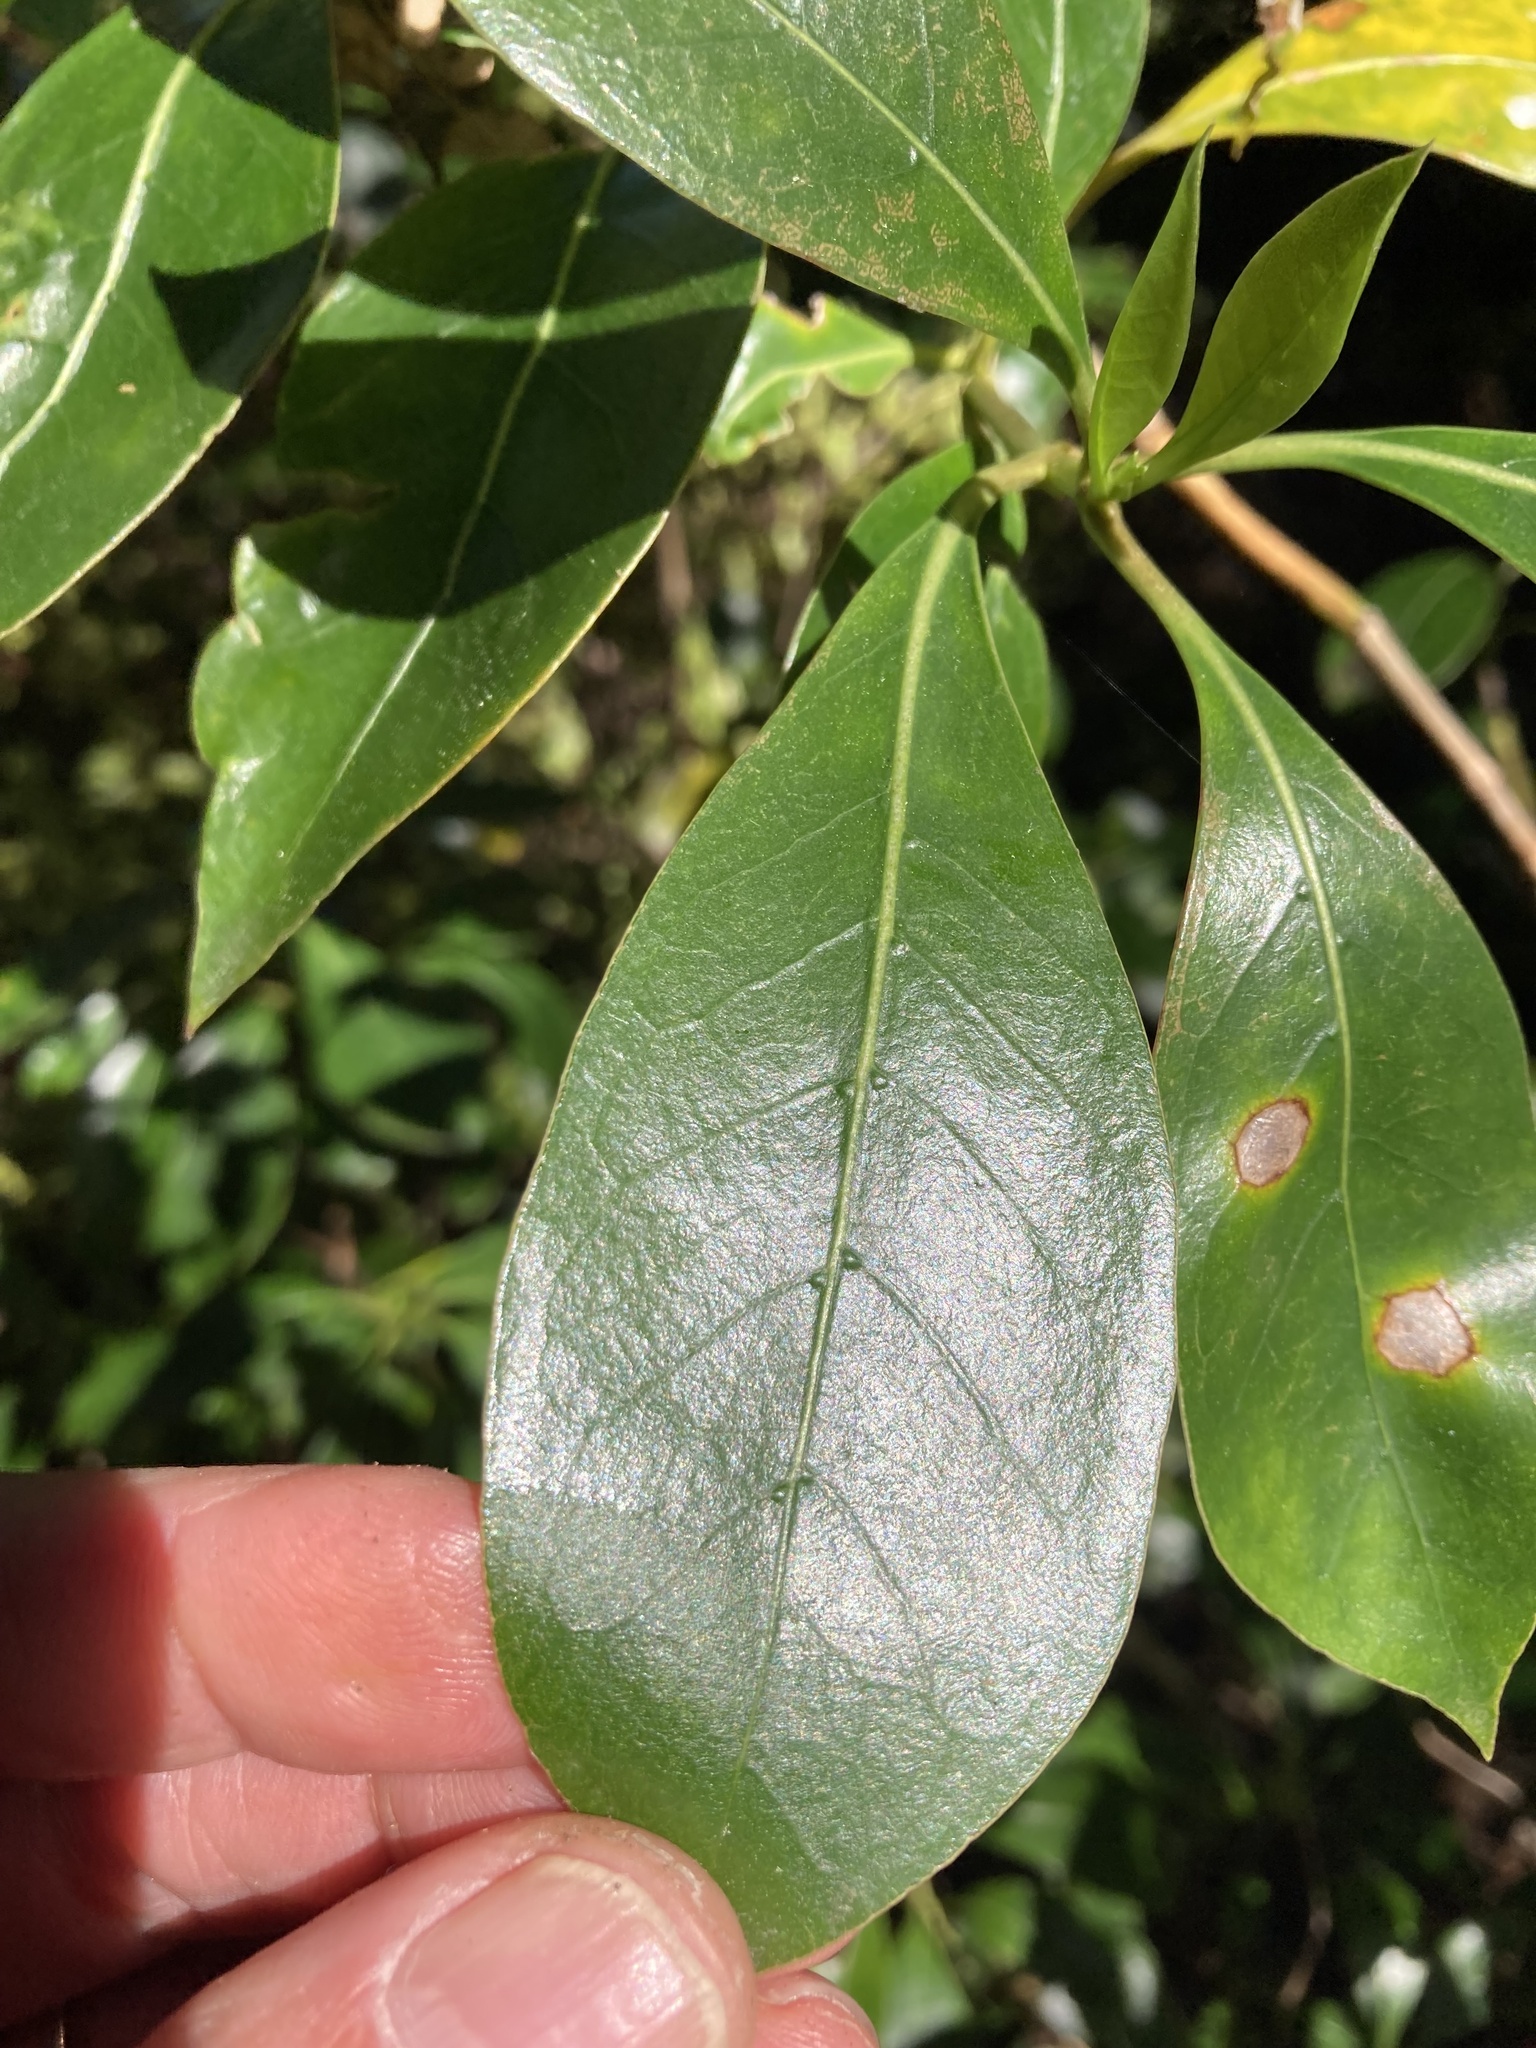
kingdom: Plantae
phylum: Tracheophyta
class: Magnoliopsida
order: Gentianales
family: Rubiaceae
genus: Coprosma
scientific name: Coprosma lucida
